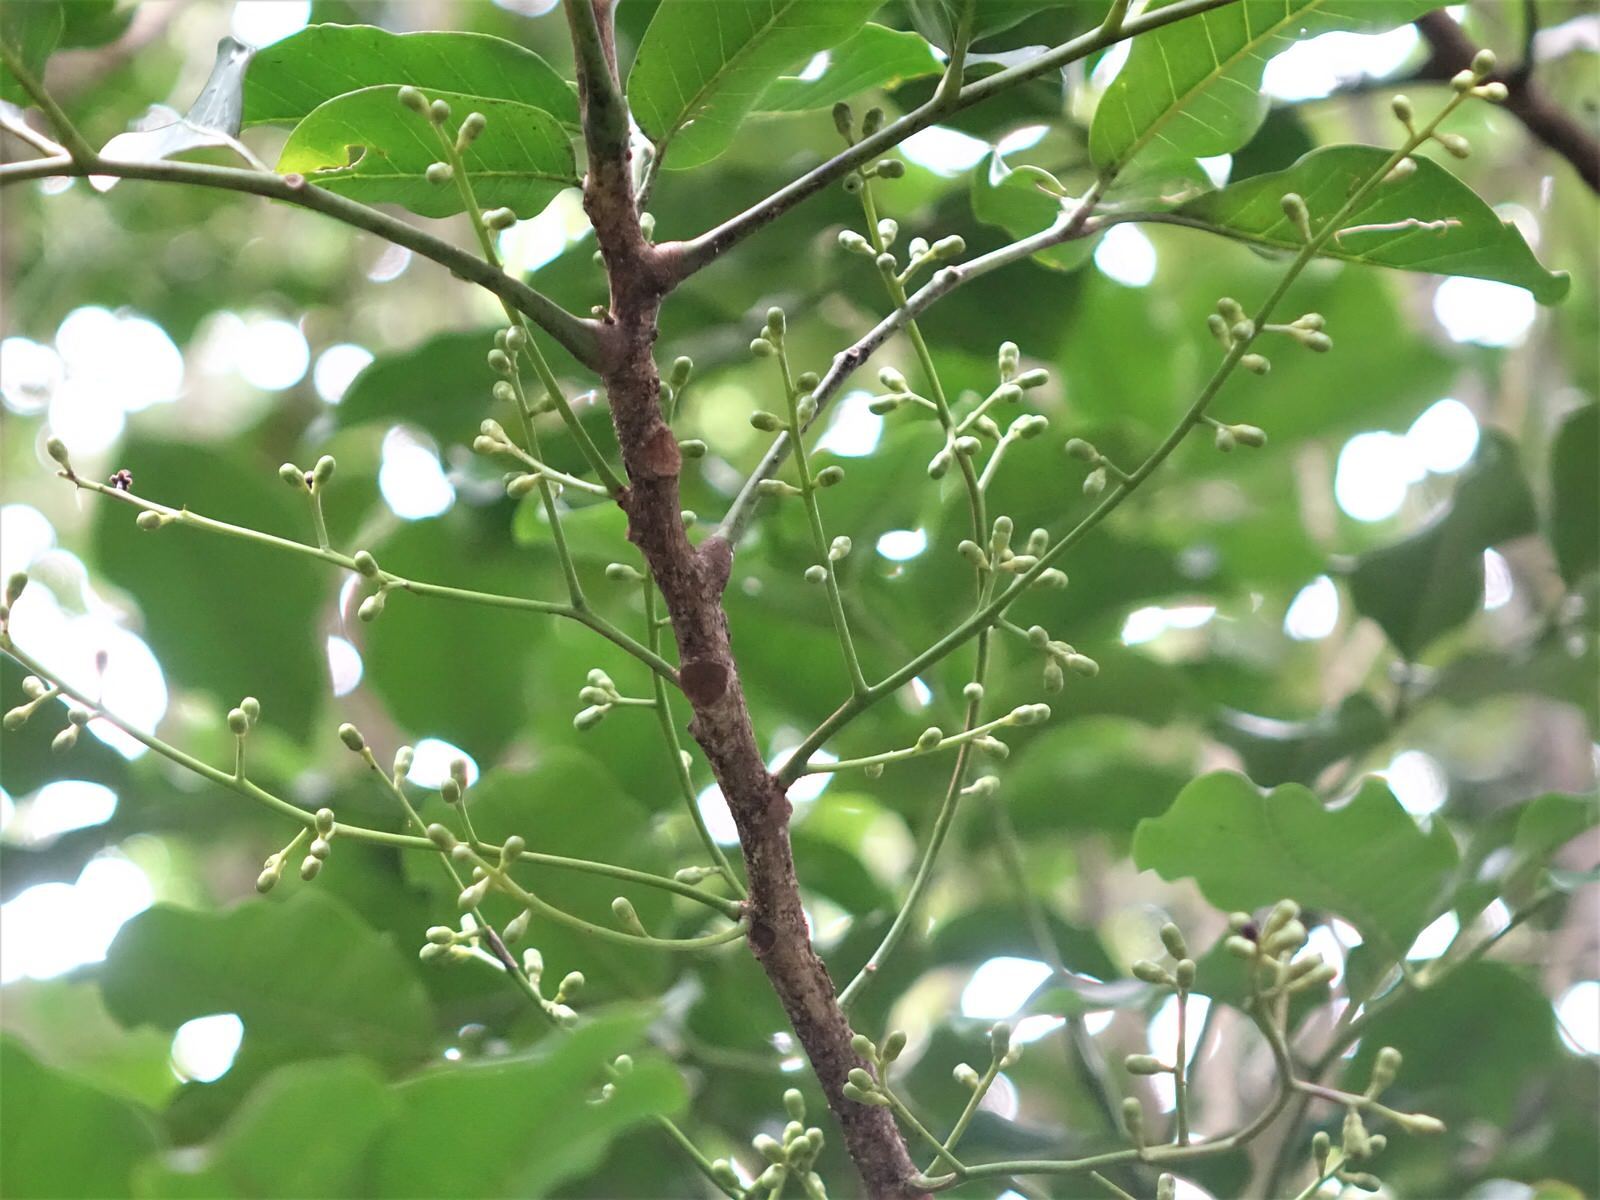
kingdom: Plantae
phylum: Tracheophyta
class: Magnoliopsida
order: Sapindales
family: Meliaceae
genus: Didymocheton
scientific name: Didymocheton spectabilis
